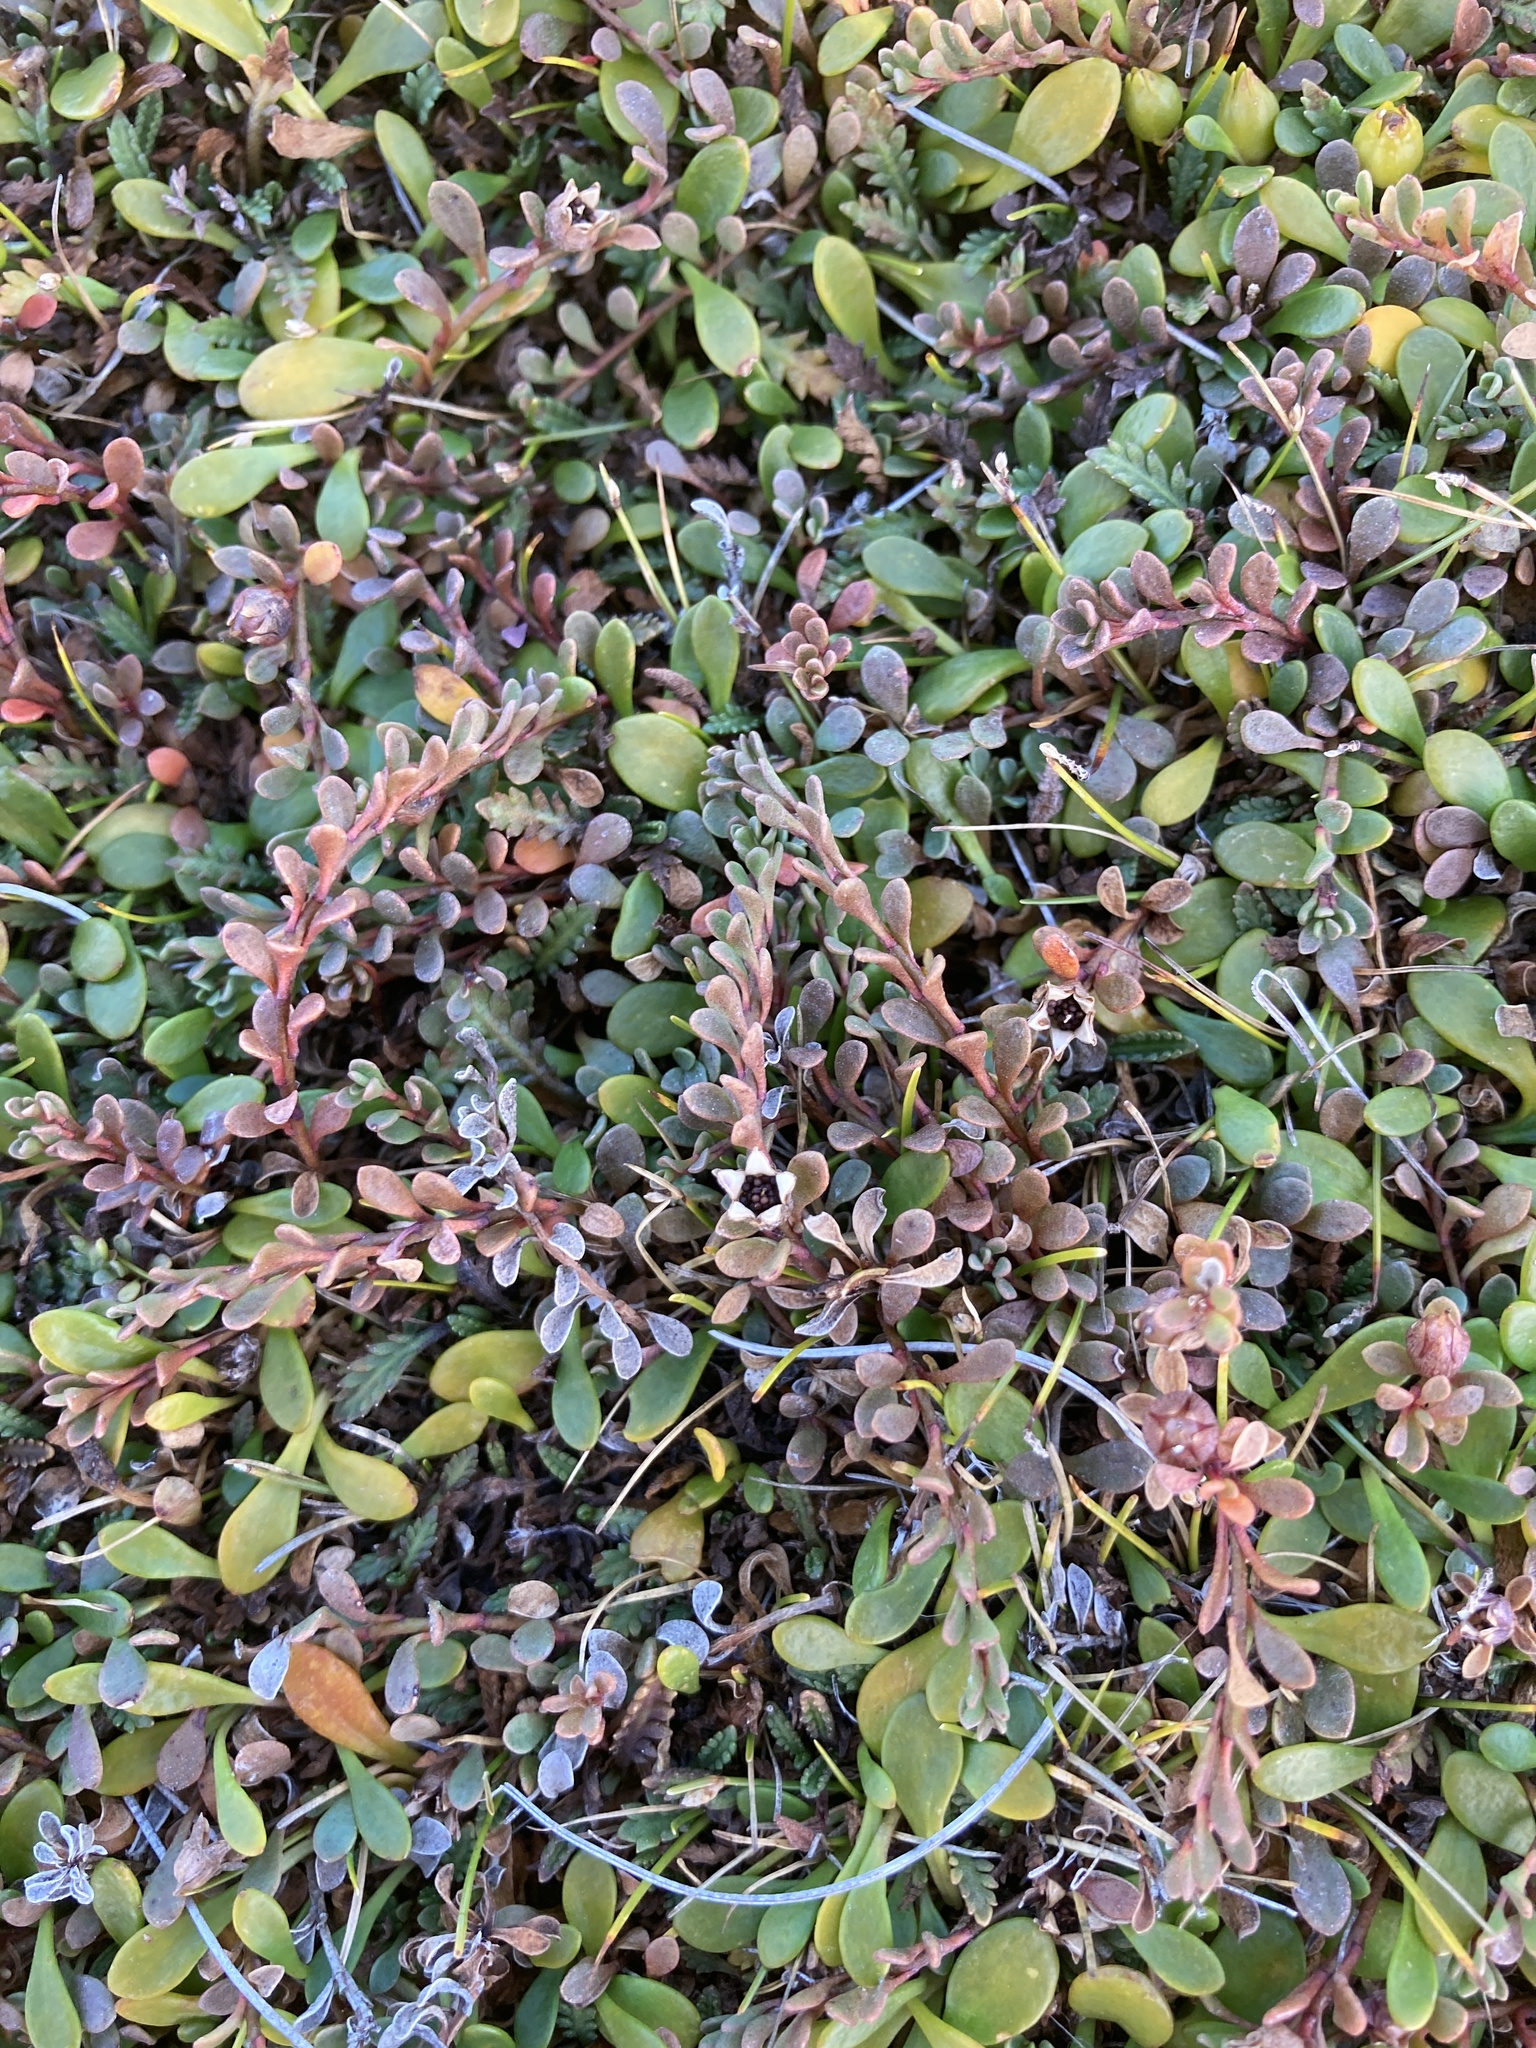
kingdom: Plantae
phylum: Tracheophyta
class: Magnoliopsida
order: Ericales
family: Primulaceae
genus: Samolus
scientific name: Samolus repens
